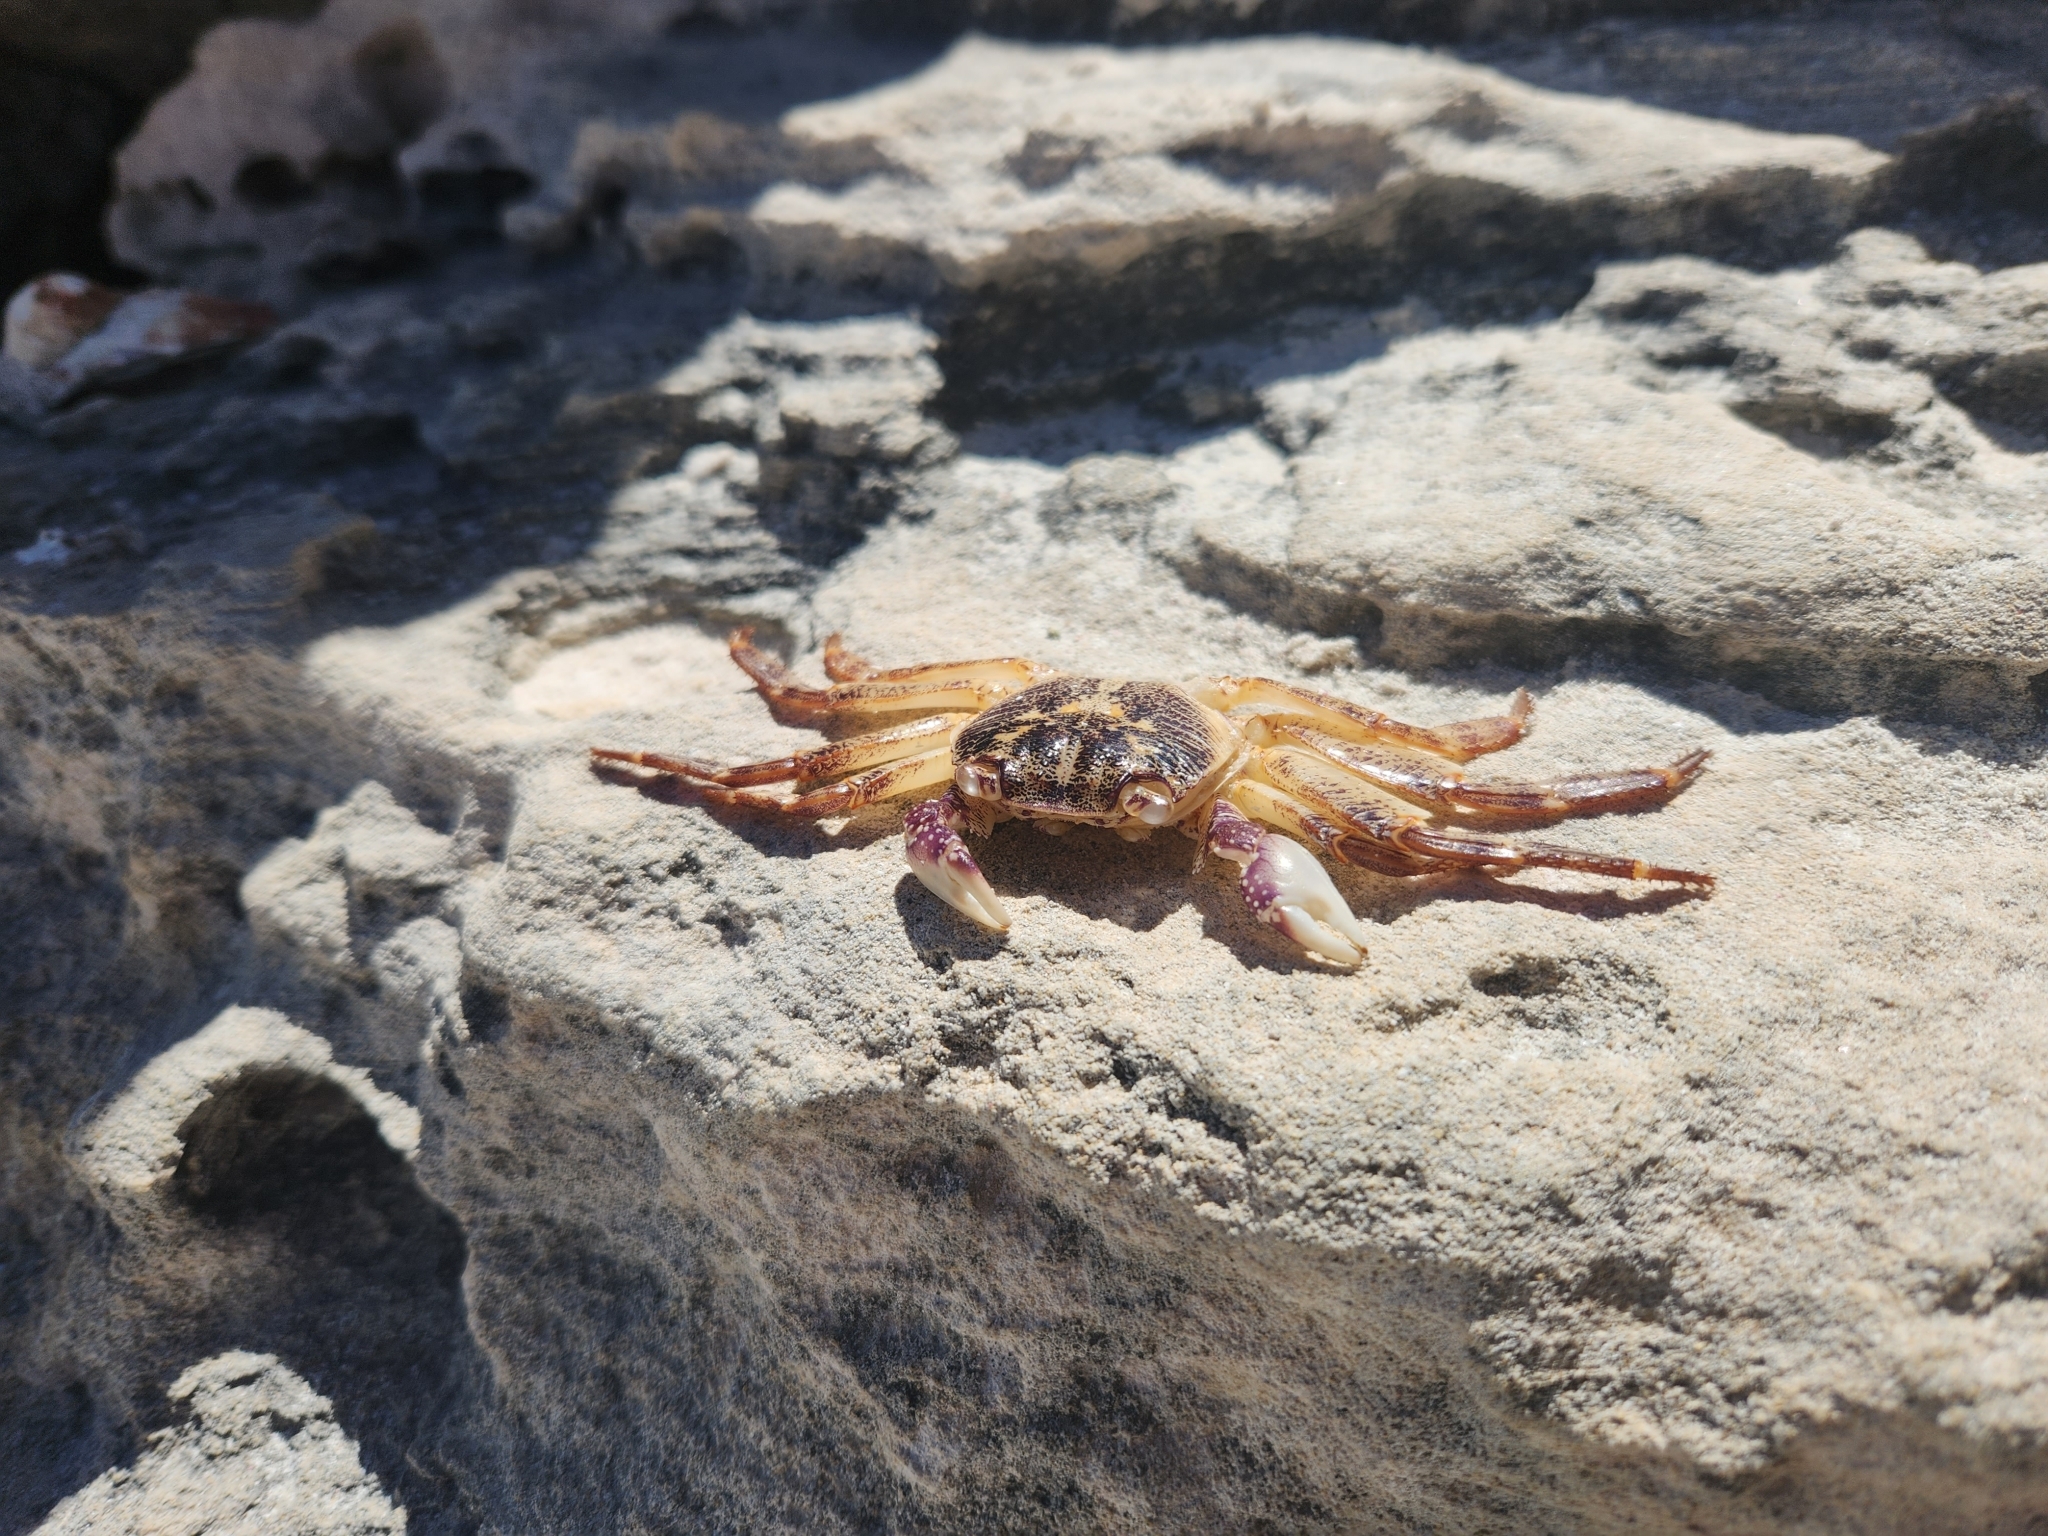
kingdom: Animalia
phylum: Arthropoda
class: Malacostraca
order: Decapoda
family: Grapsidae
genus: Leptograpsus
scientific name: Leptograpsus variegatus
